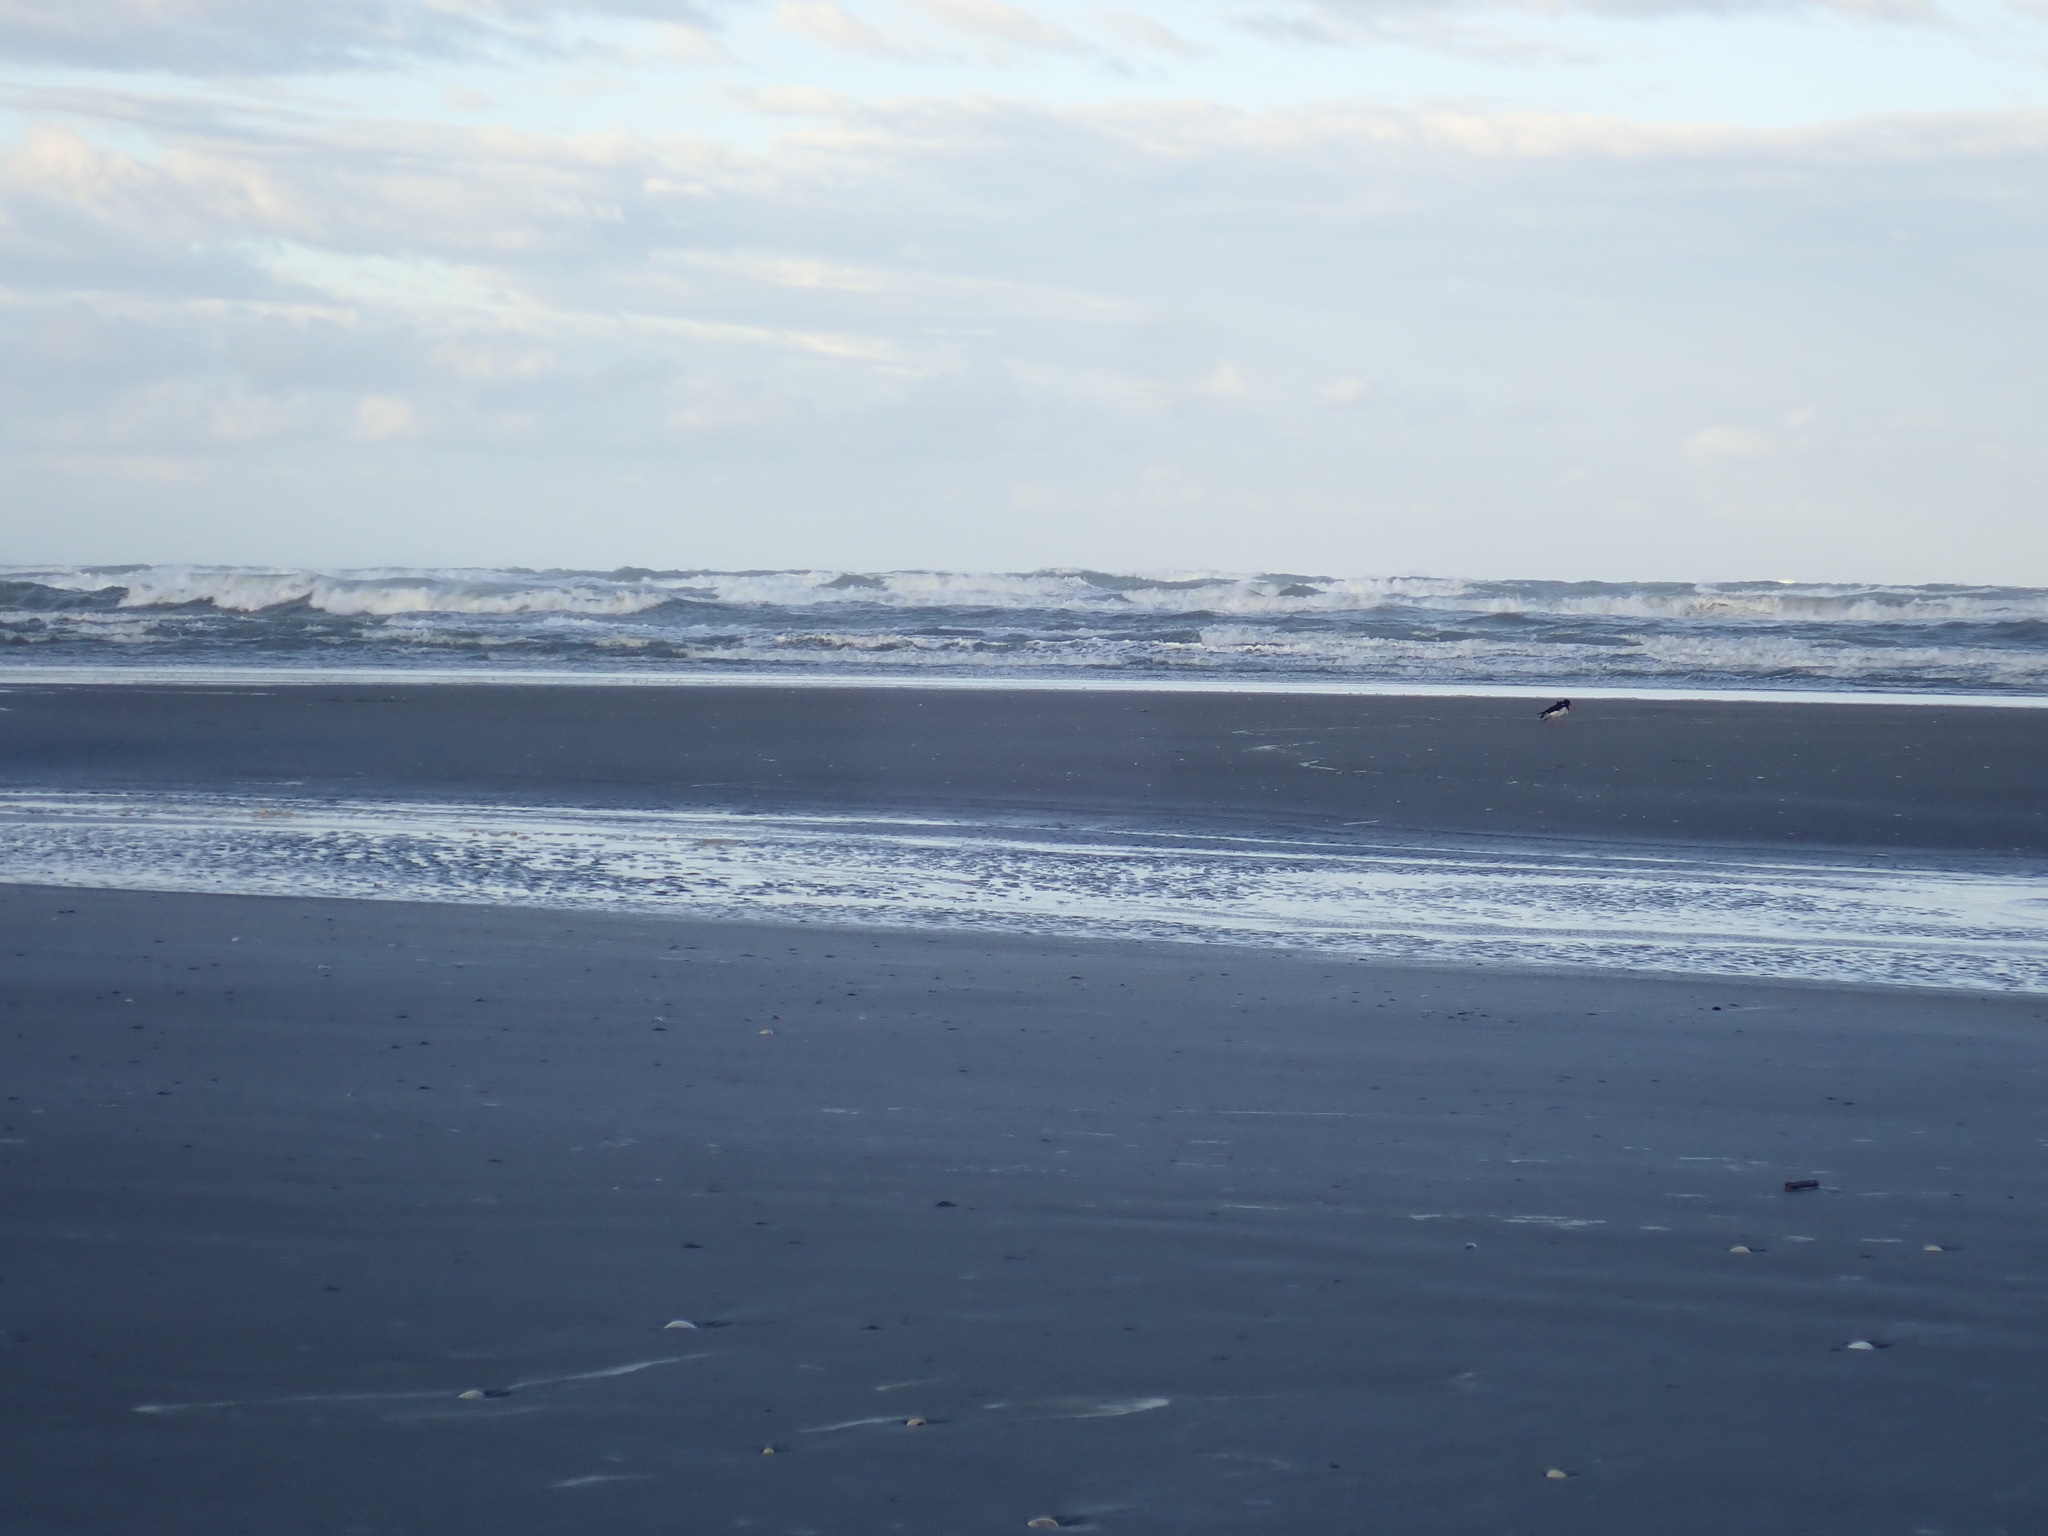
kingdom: Animalia
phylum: Chordata
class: Aves
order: Charadriiformes
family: Haematopodidae
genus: Haematopus
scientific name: Haematopus finschi
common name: South island oystercatcher
